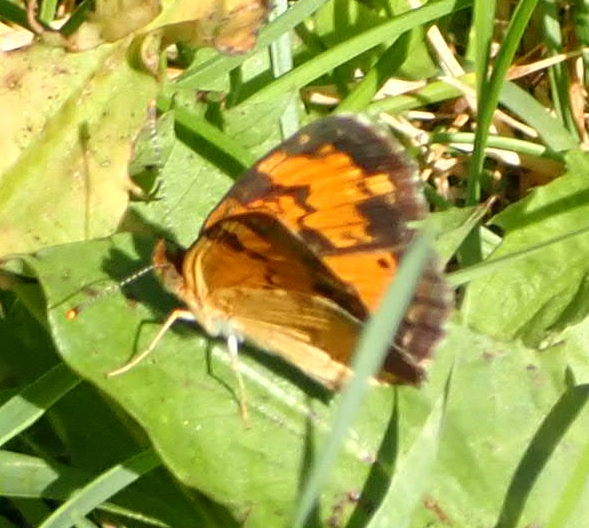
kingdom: Animalia
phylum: Arthropoda
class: Insecta
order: Lepidoptera
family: Nymphalidae
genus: Phyciodes
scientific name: Phyciodes tharos
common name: Pearl crescent
